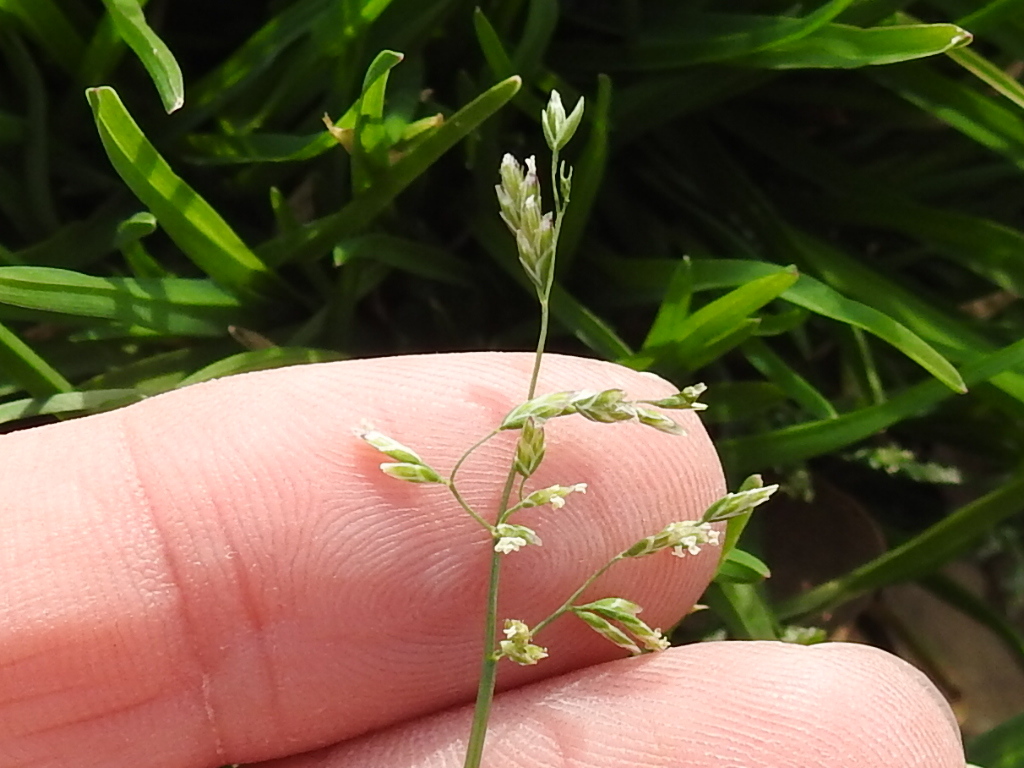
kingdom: Plantae
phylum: Tracheophyta
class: Liliopsida
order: Poales
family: Poaceae
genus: Poa
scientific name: Poa annua
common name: Annual bluegrass
